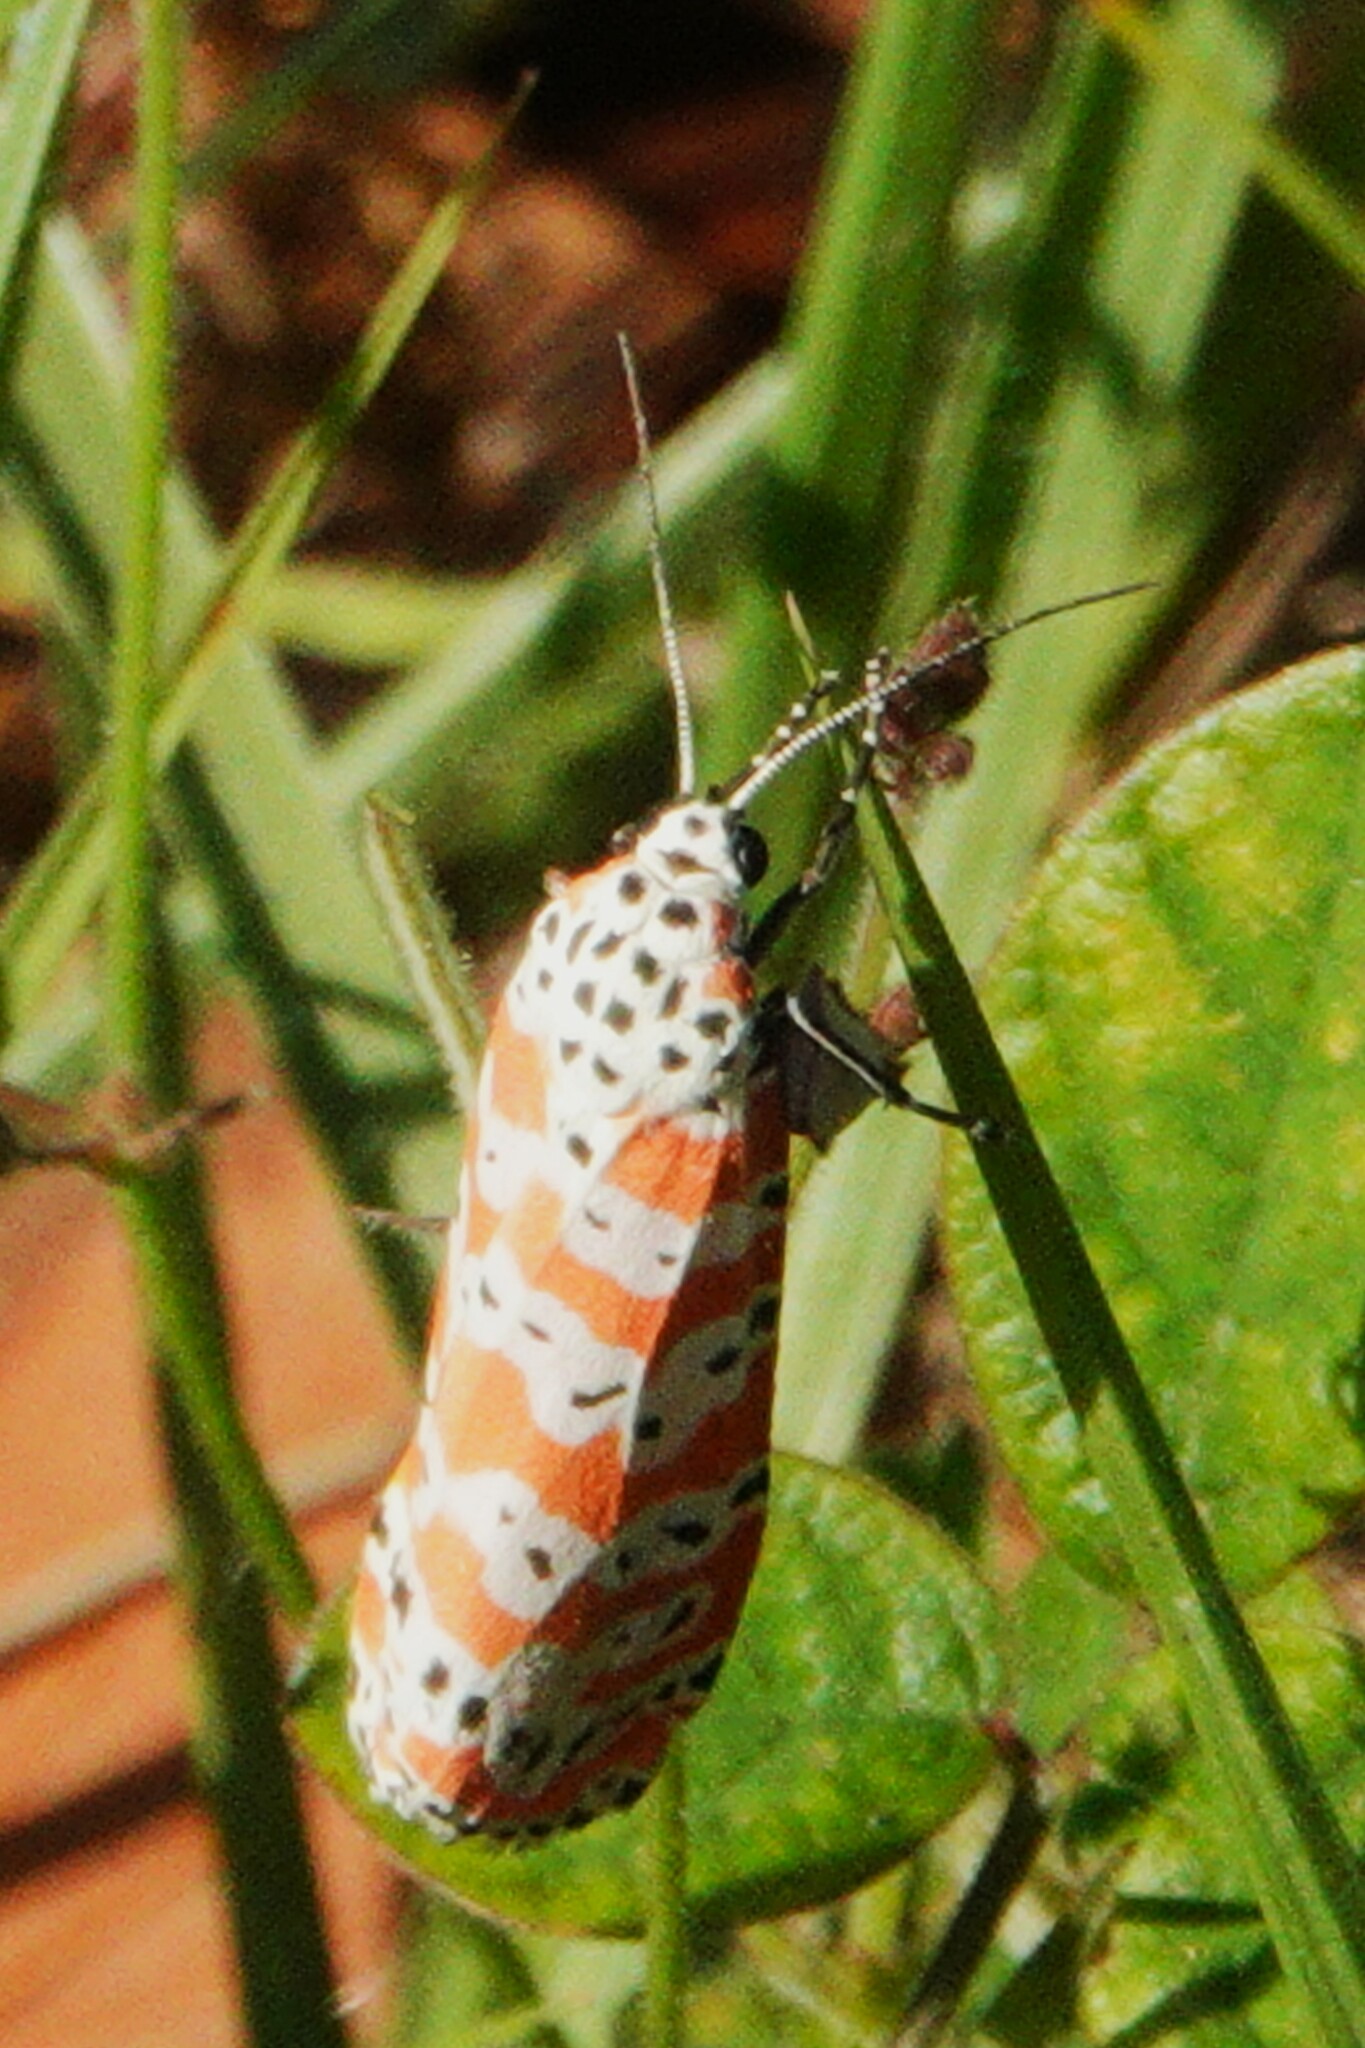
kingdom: Animalia
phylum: Arthropoda
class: Insecta
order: Lepidoptera
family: Erebidae
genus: Utetheisa
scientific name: Utetheisa ornatrix
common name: Beautiful utetheisa
